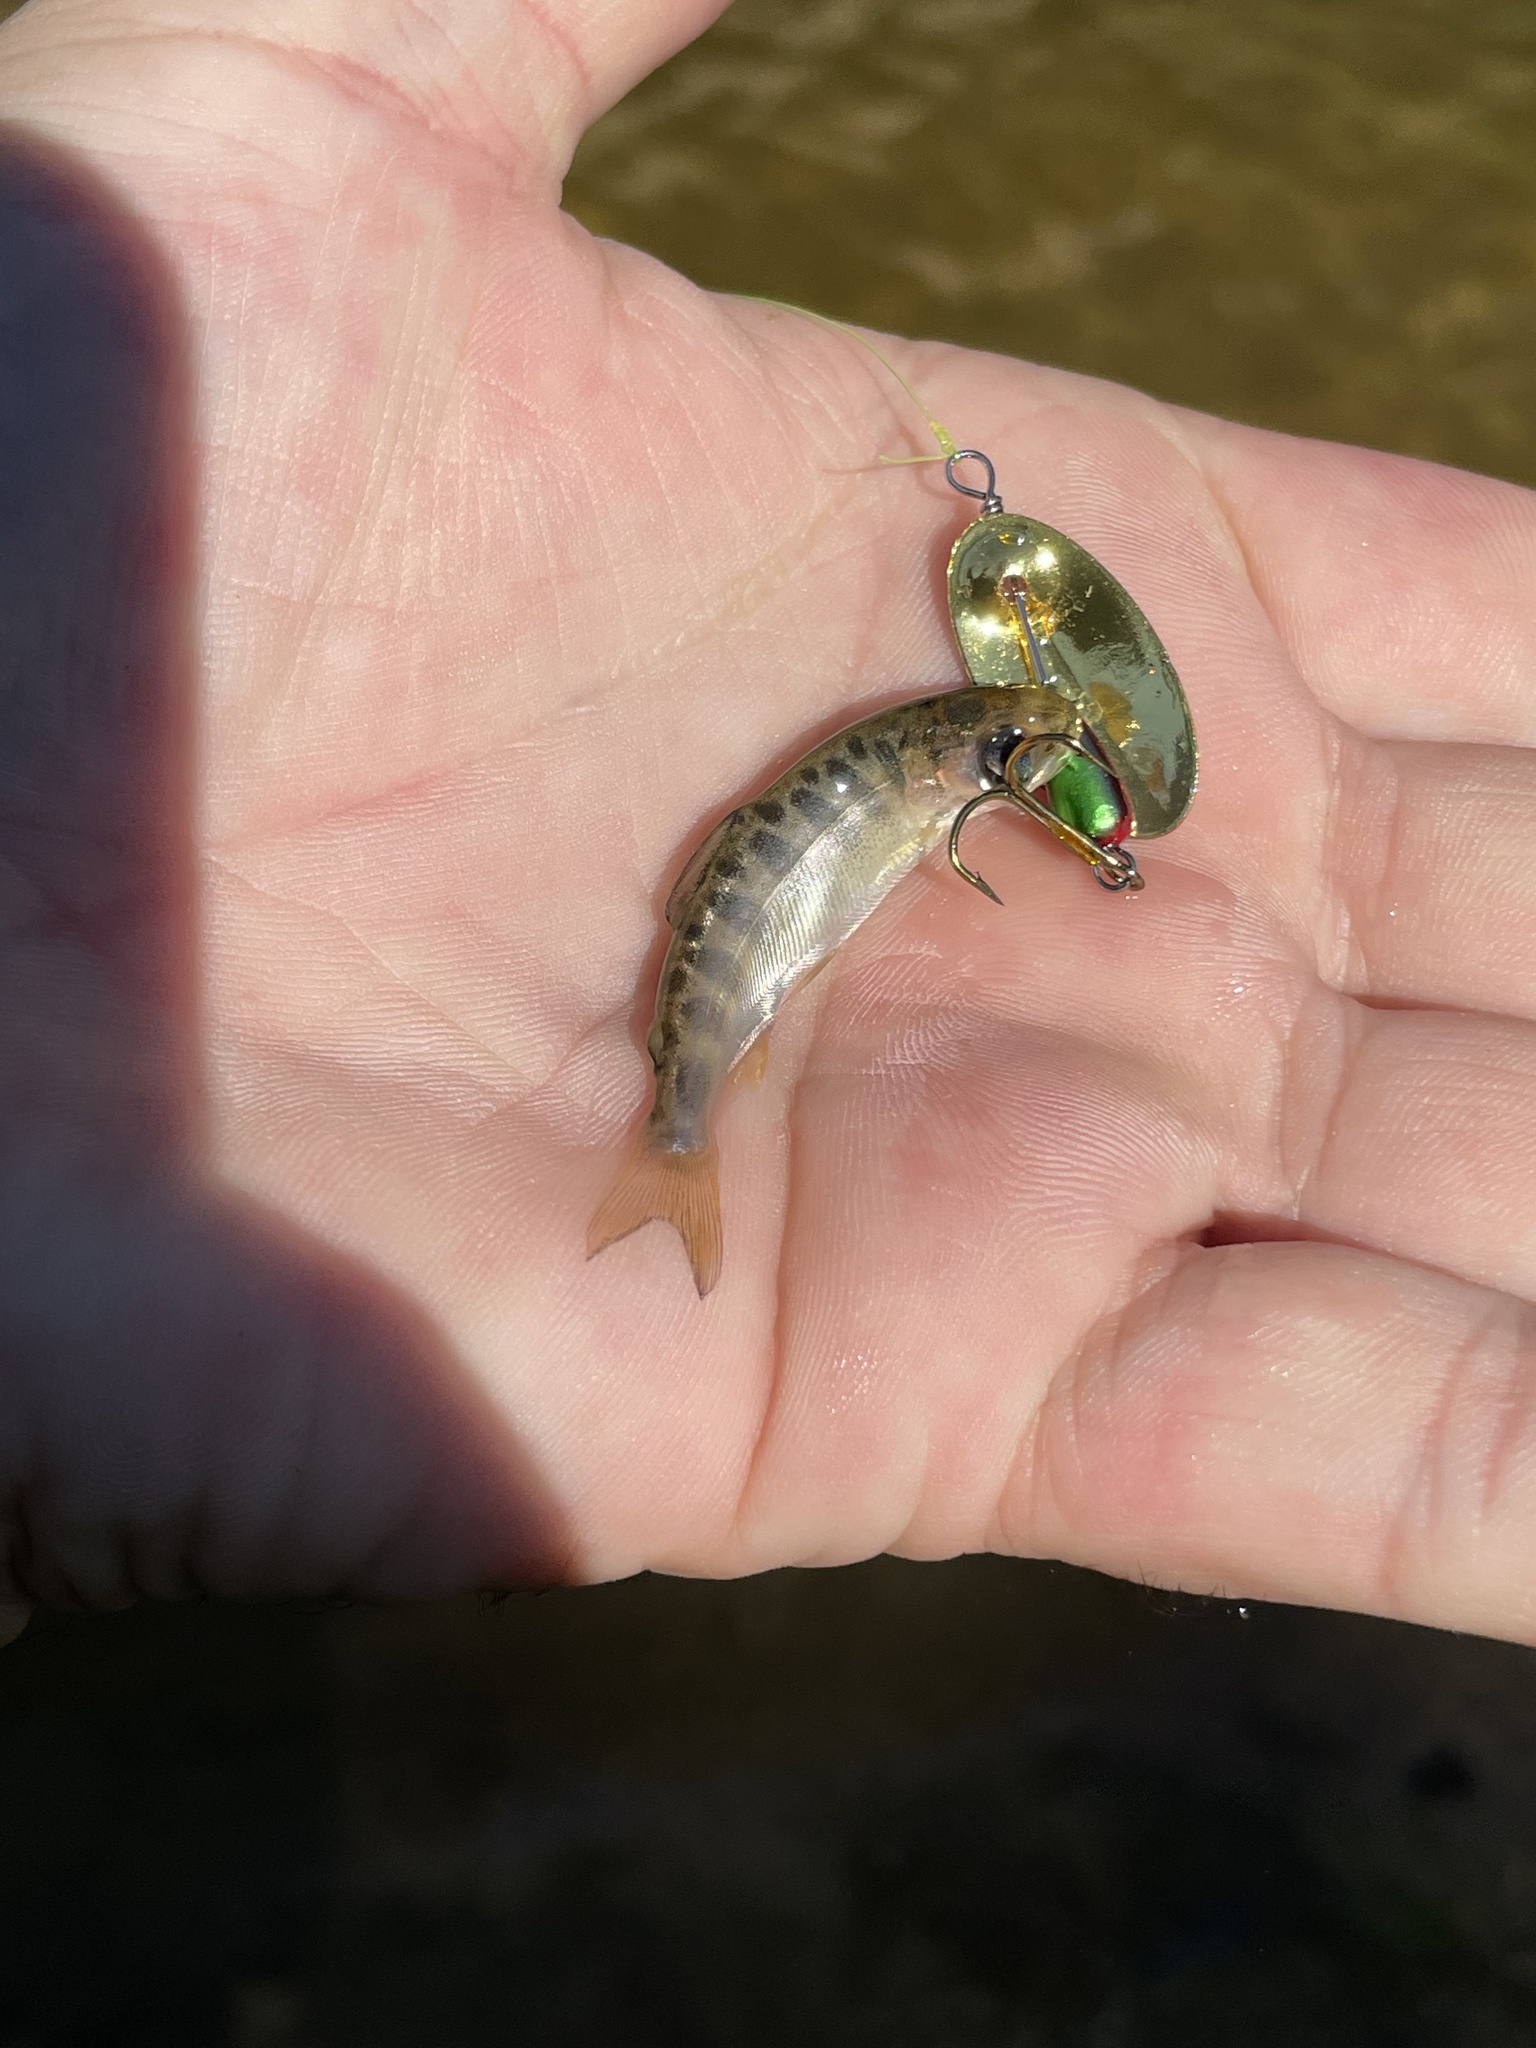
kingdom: Animalia
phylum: Chordata
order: Salmoniformes
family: Salmonidae
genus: Oncorhynchus
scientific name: Oncorhynchus tshawytscha
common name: Chinook salmon
